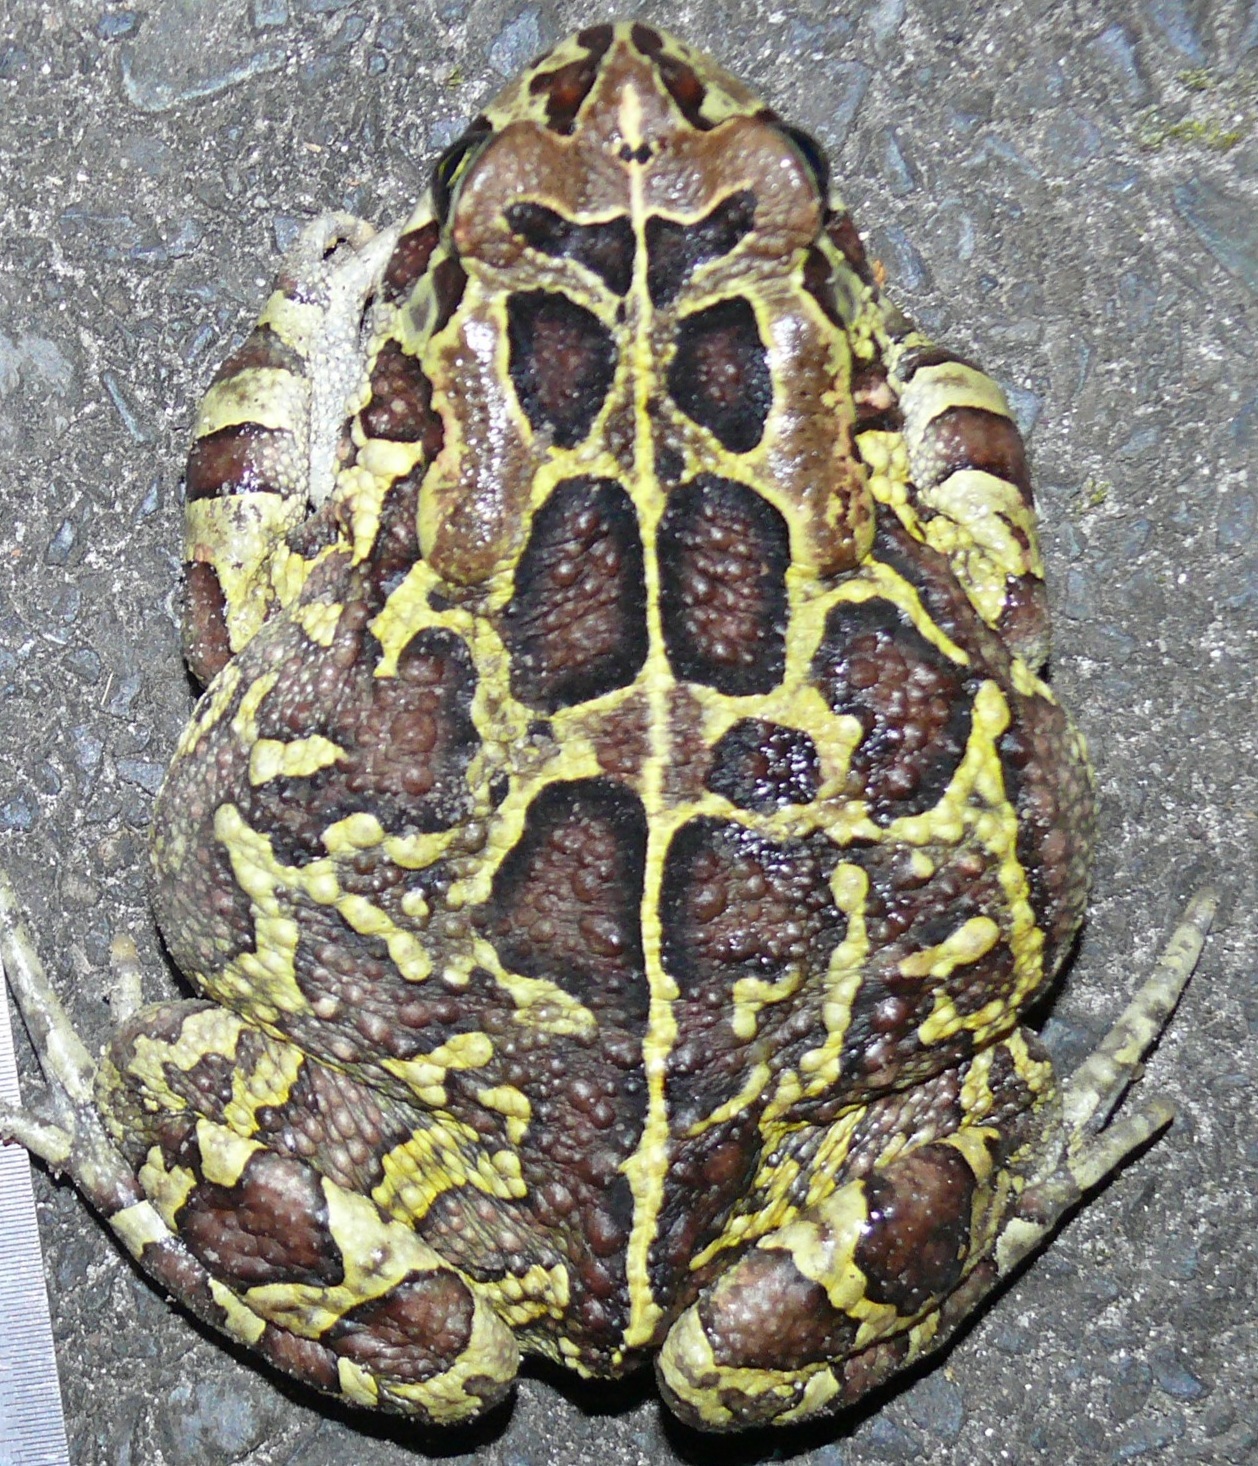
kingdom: Animalia
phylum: Chordata
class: Amphibia
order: Anura
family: Bufonidae
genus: Sclerophrys
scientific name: Sclerophrys pantherina
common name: Panther toad
